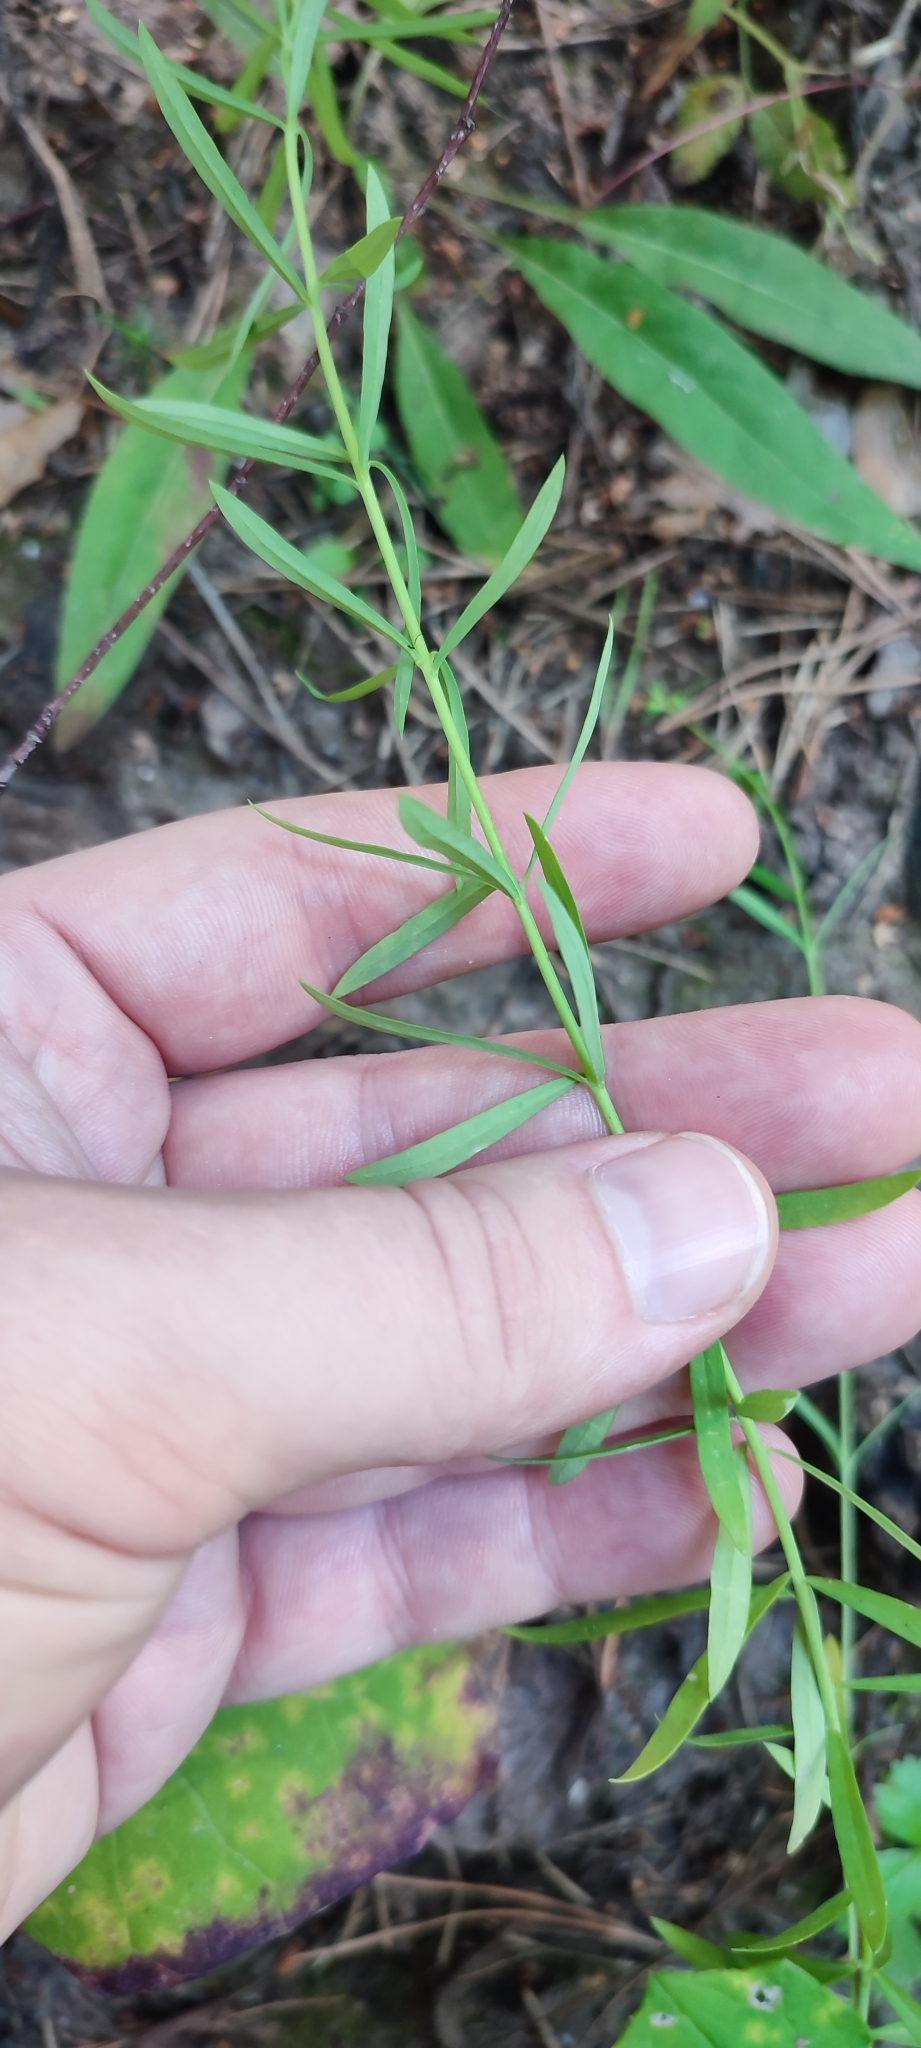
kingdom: Plantae
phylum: Tracheophyta
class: Magnoliopsida
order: Lamiales
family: Plantaginaceae
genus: Linaria
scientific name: Linaria vulgaris
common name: Butter and eggs
